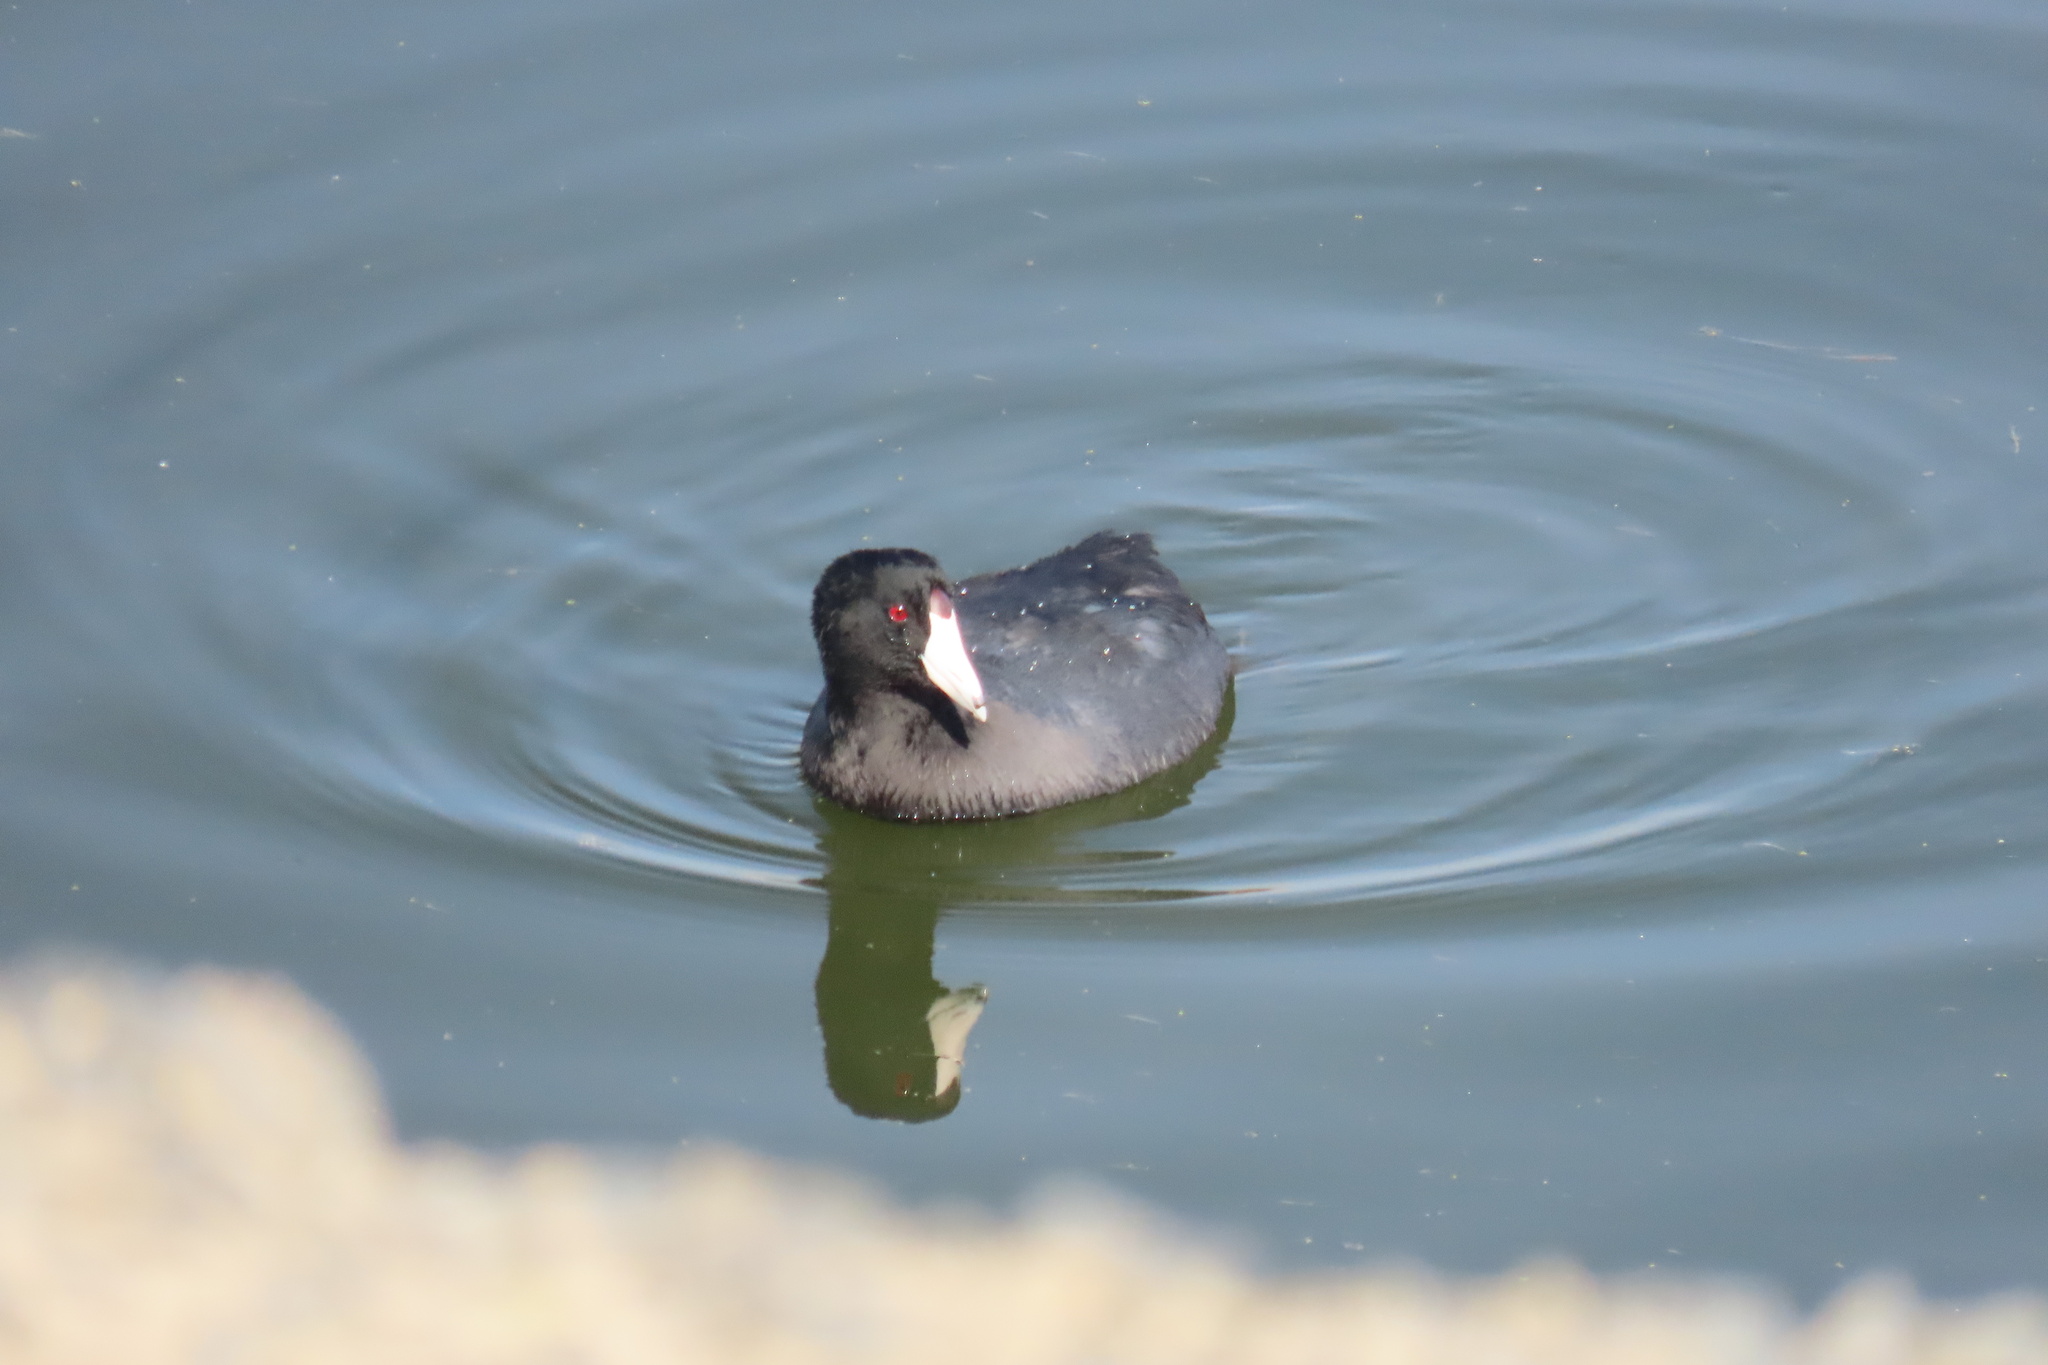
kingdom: Animalia
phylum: Chordata
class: Aves
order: Gruiformes
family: Rallidae
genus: Fulica
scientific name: Fulica americana
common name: American coot
